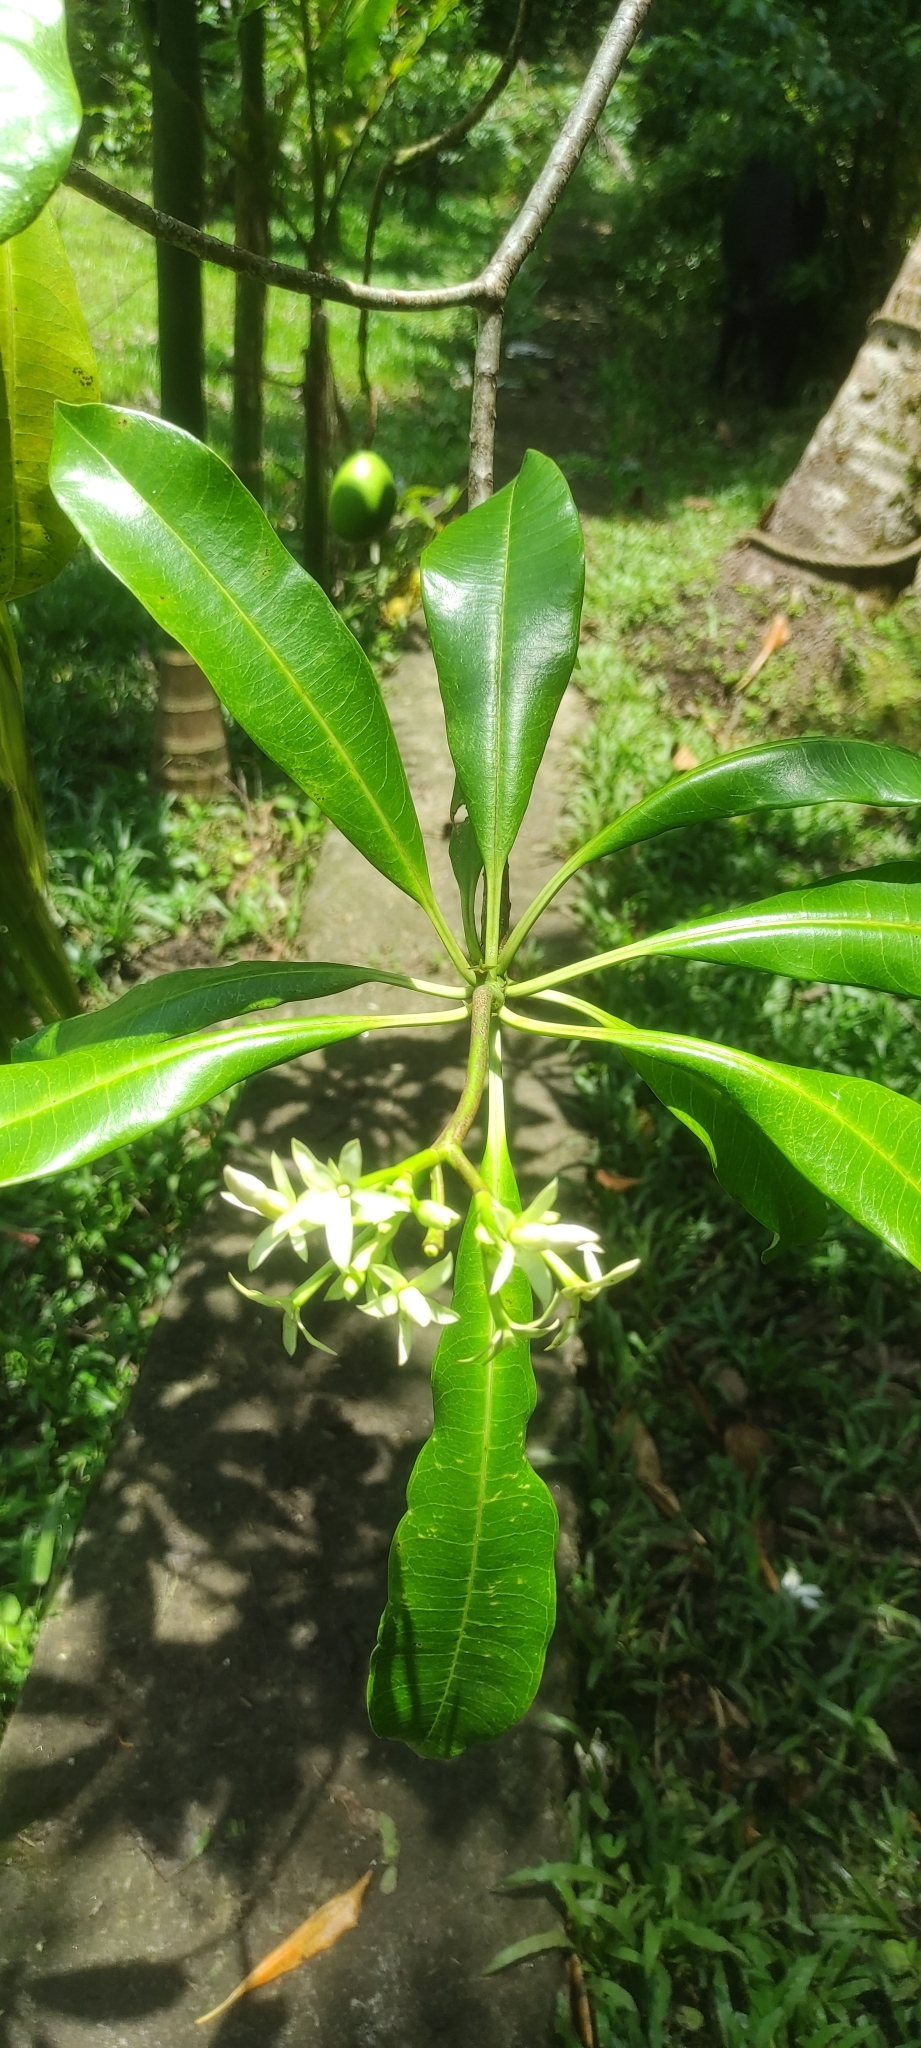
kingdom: Plantae
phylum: Tracheophyta
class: Magnoliopsida
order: Gentianales
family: Apocynaceae
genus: Cerbera
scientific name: Cerbera odollam
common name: Pong-pong
